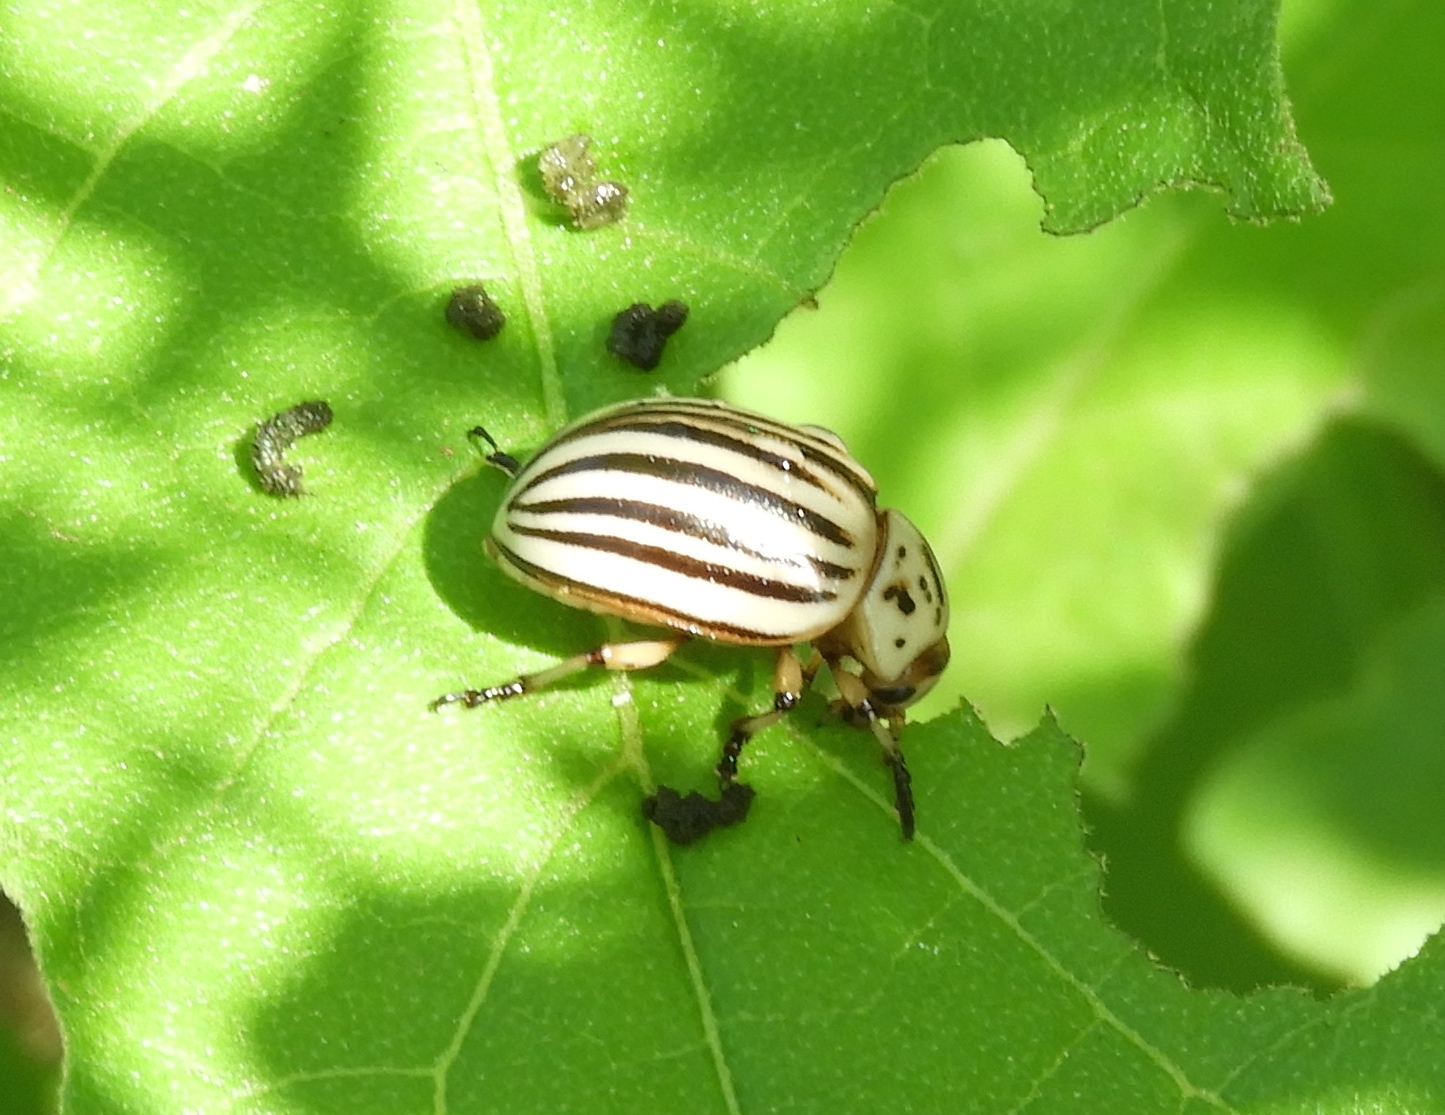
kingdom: Animalia
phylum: Arthropoda
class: Insecta
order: Coleoptera
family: Chrysomelidae
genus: Leptinotarsa
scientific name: Leptinotarsa decemlineata
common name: Colorado potato beetle
